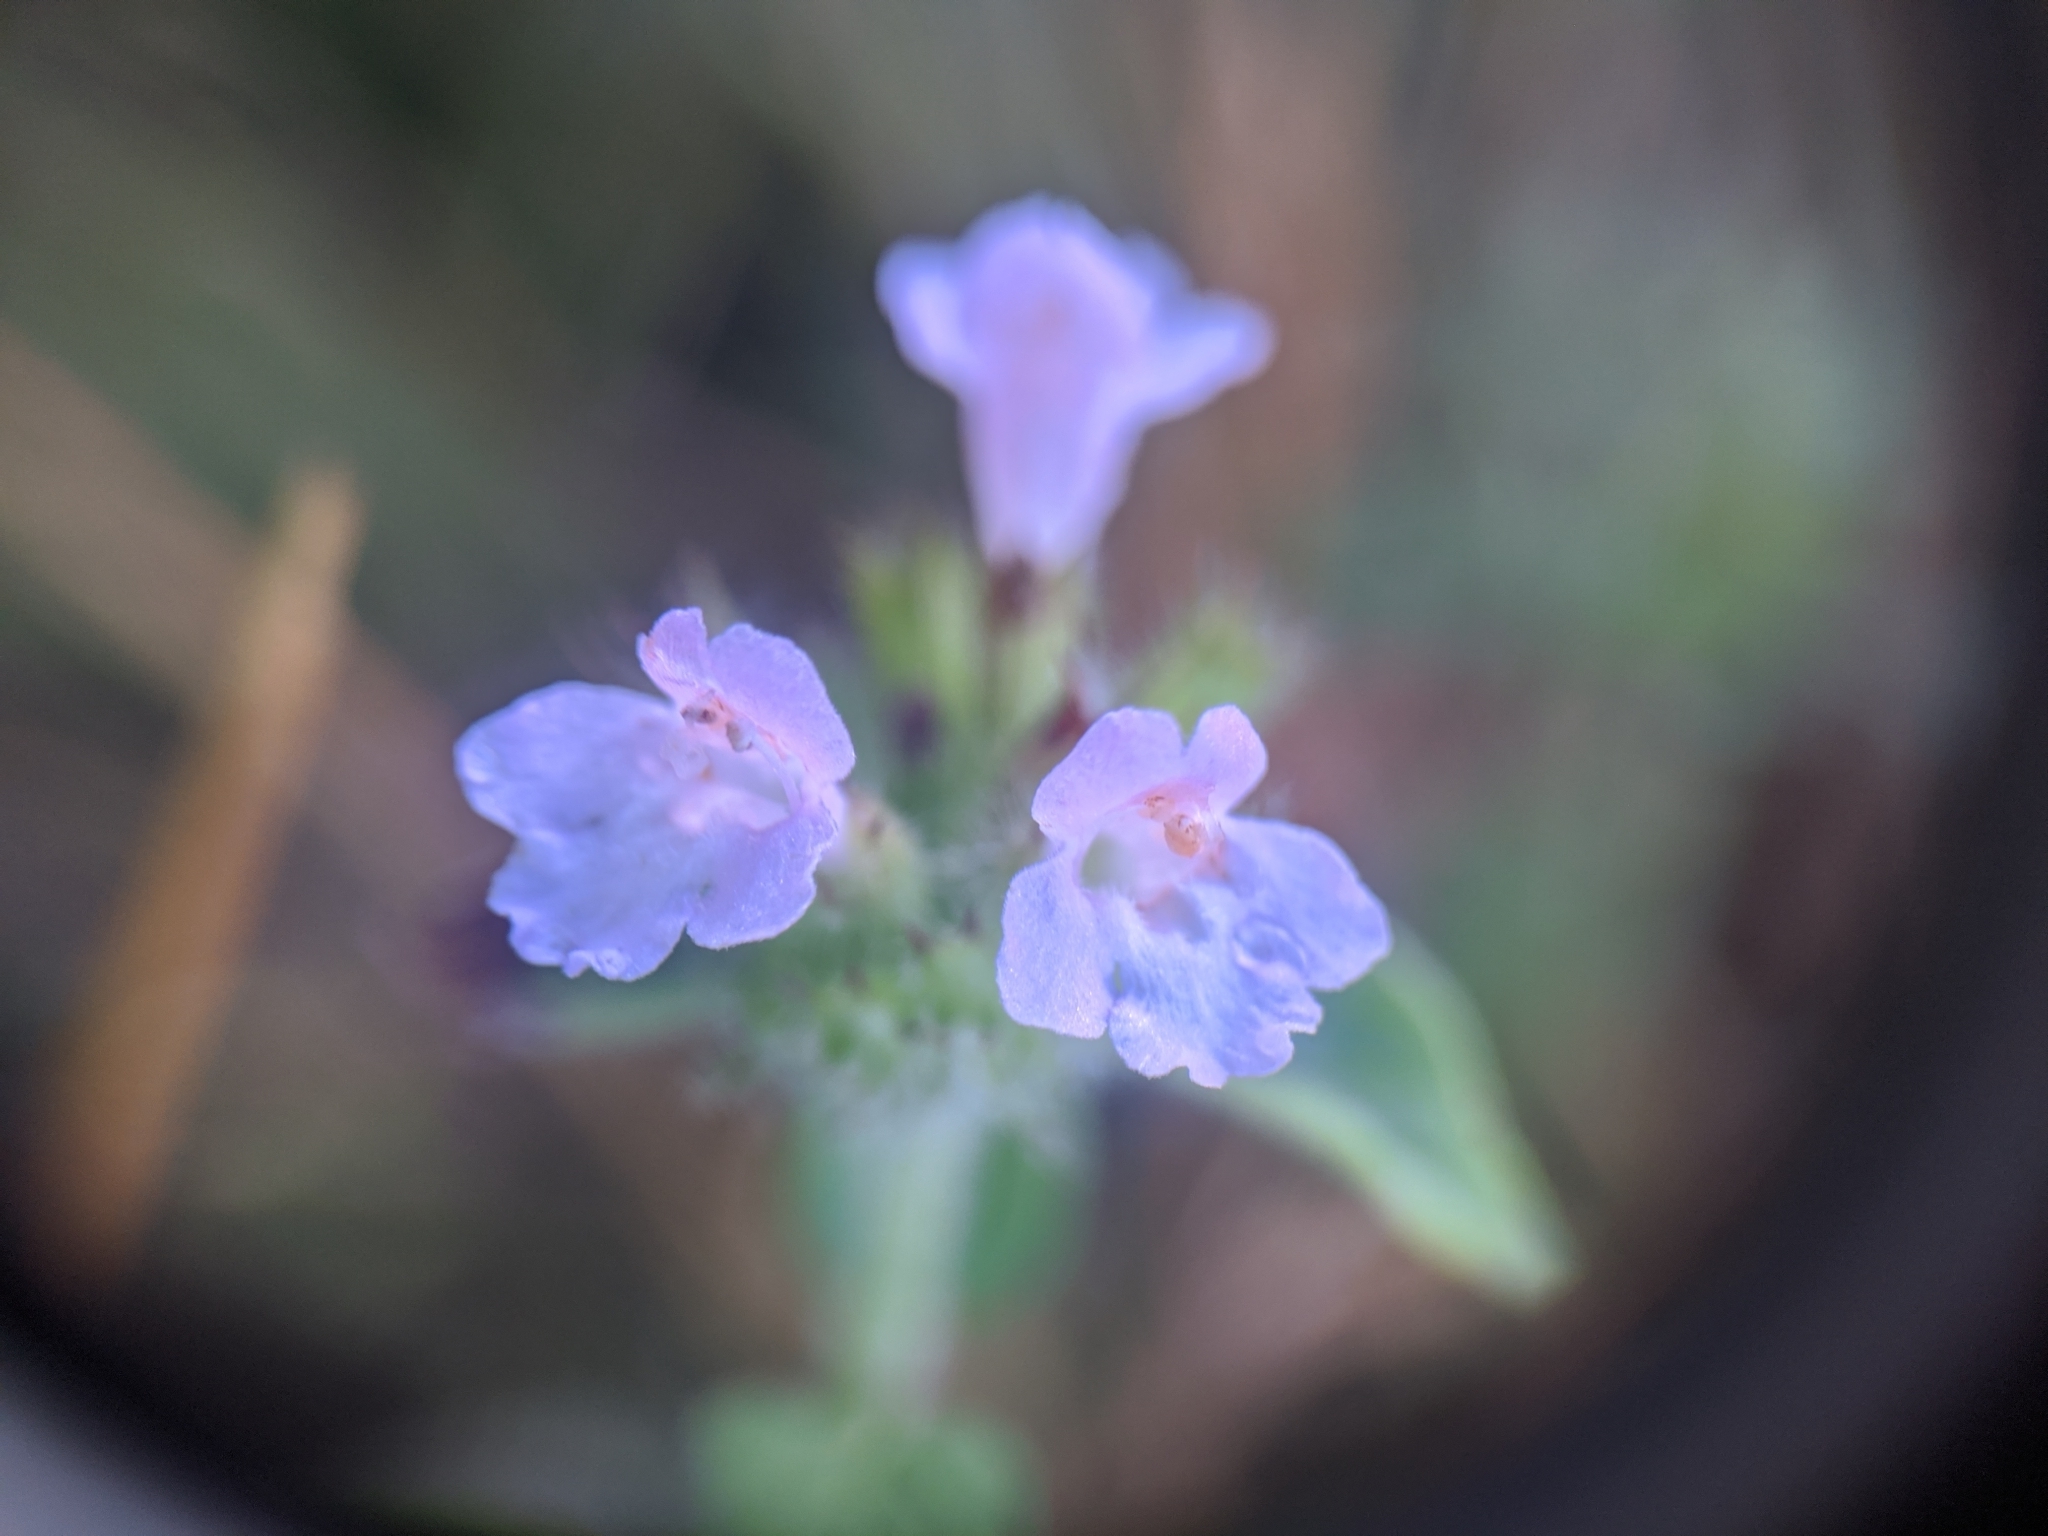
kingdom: Plantae
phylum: Tracheophyta
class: Magnoliopsida
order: Lamiales
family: Lamiaceae
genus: Clinopodium
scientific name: Clinopodium vulgare
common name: Wild basil
